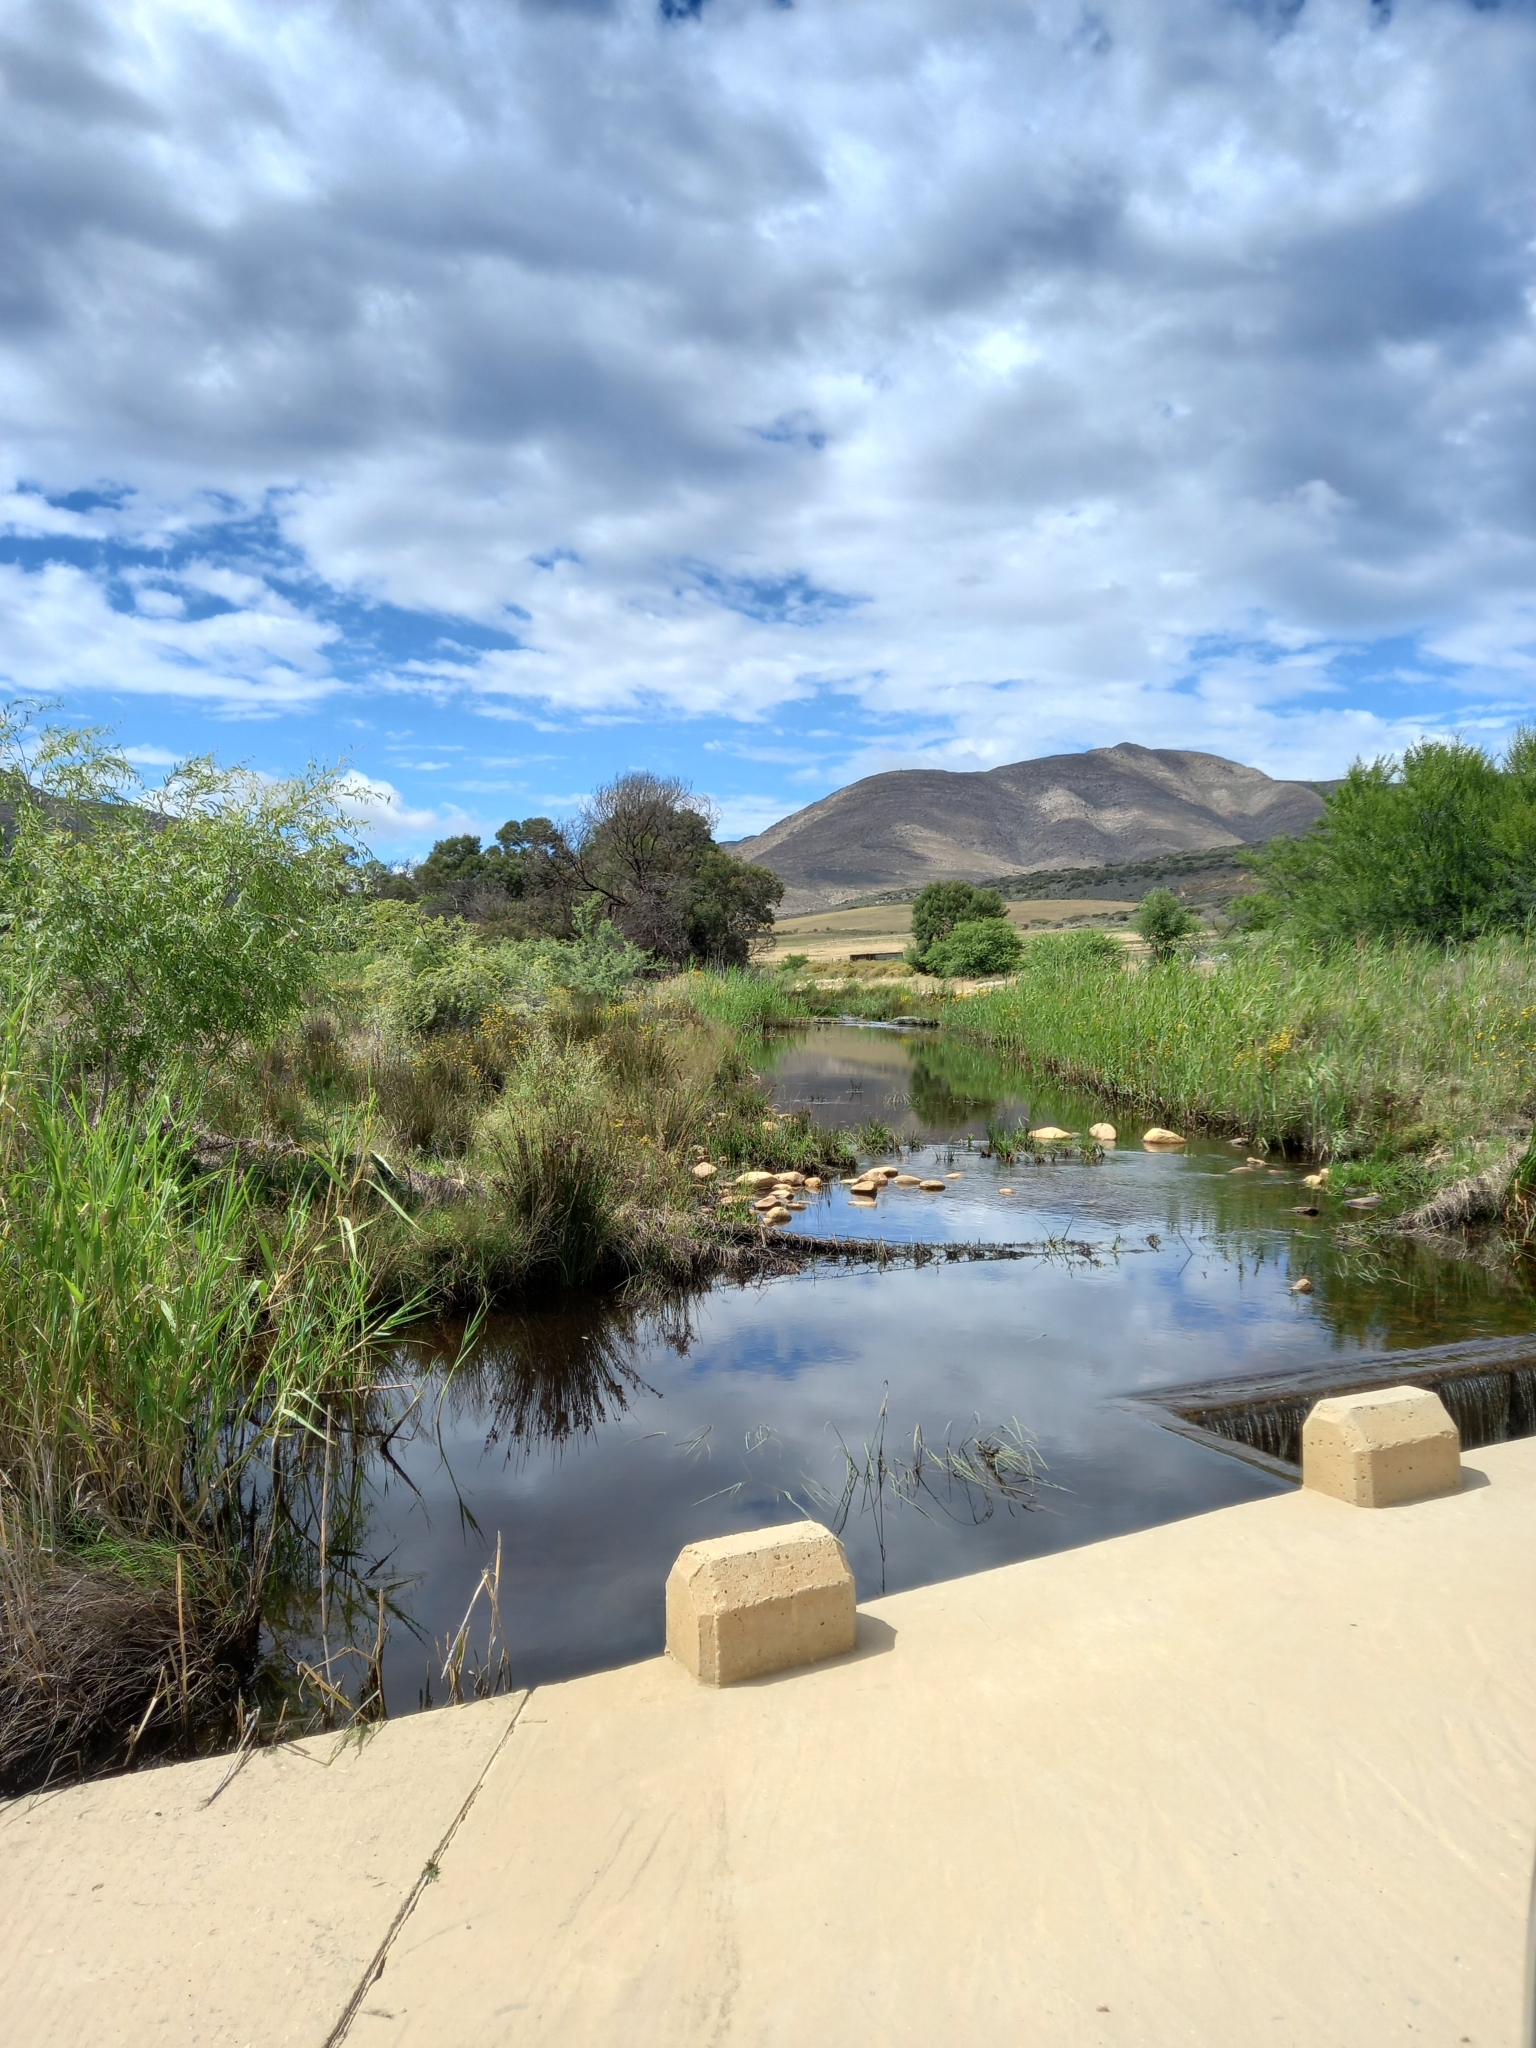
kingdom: Plantae
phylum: Tracheophyta
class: Liliopsida
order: Poales
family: Poaceae
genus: Phragmites
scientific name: Phragmites australis
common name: Common reed
